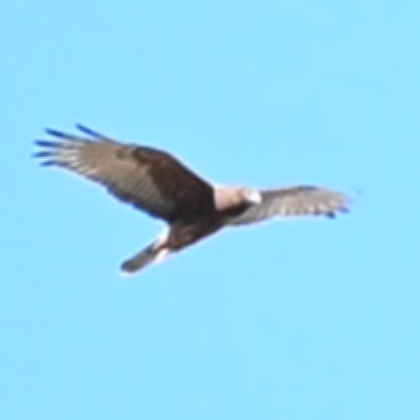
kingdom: Animalia
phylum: Chordata
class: Aves
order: Accipitriformes
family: Accipitridae
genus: Circus
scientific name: Circus approximans
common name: Swamp harrier
